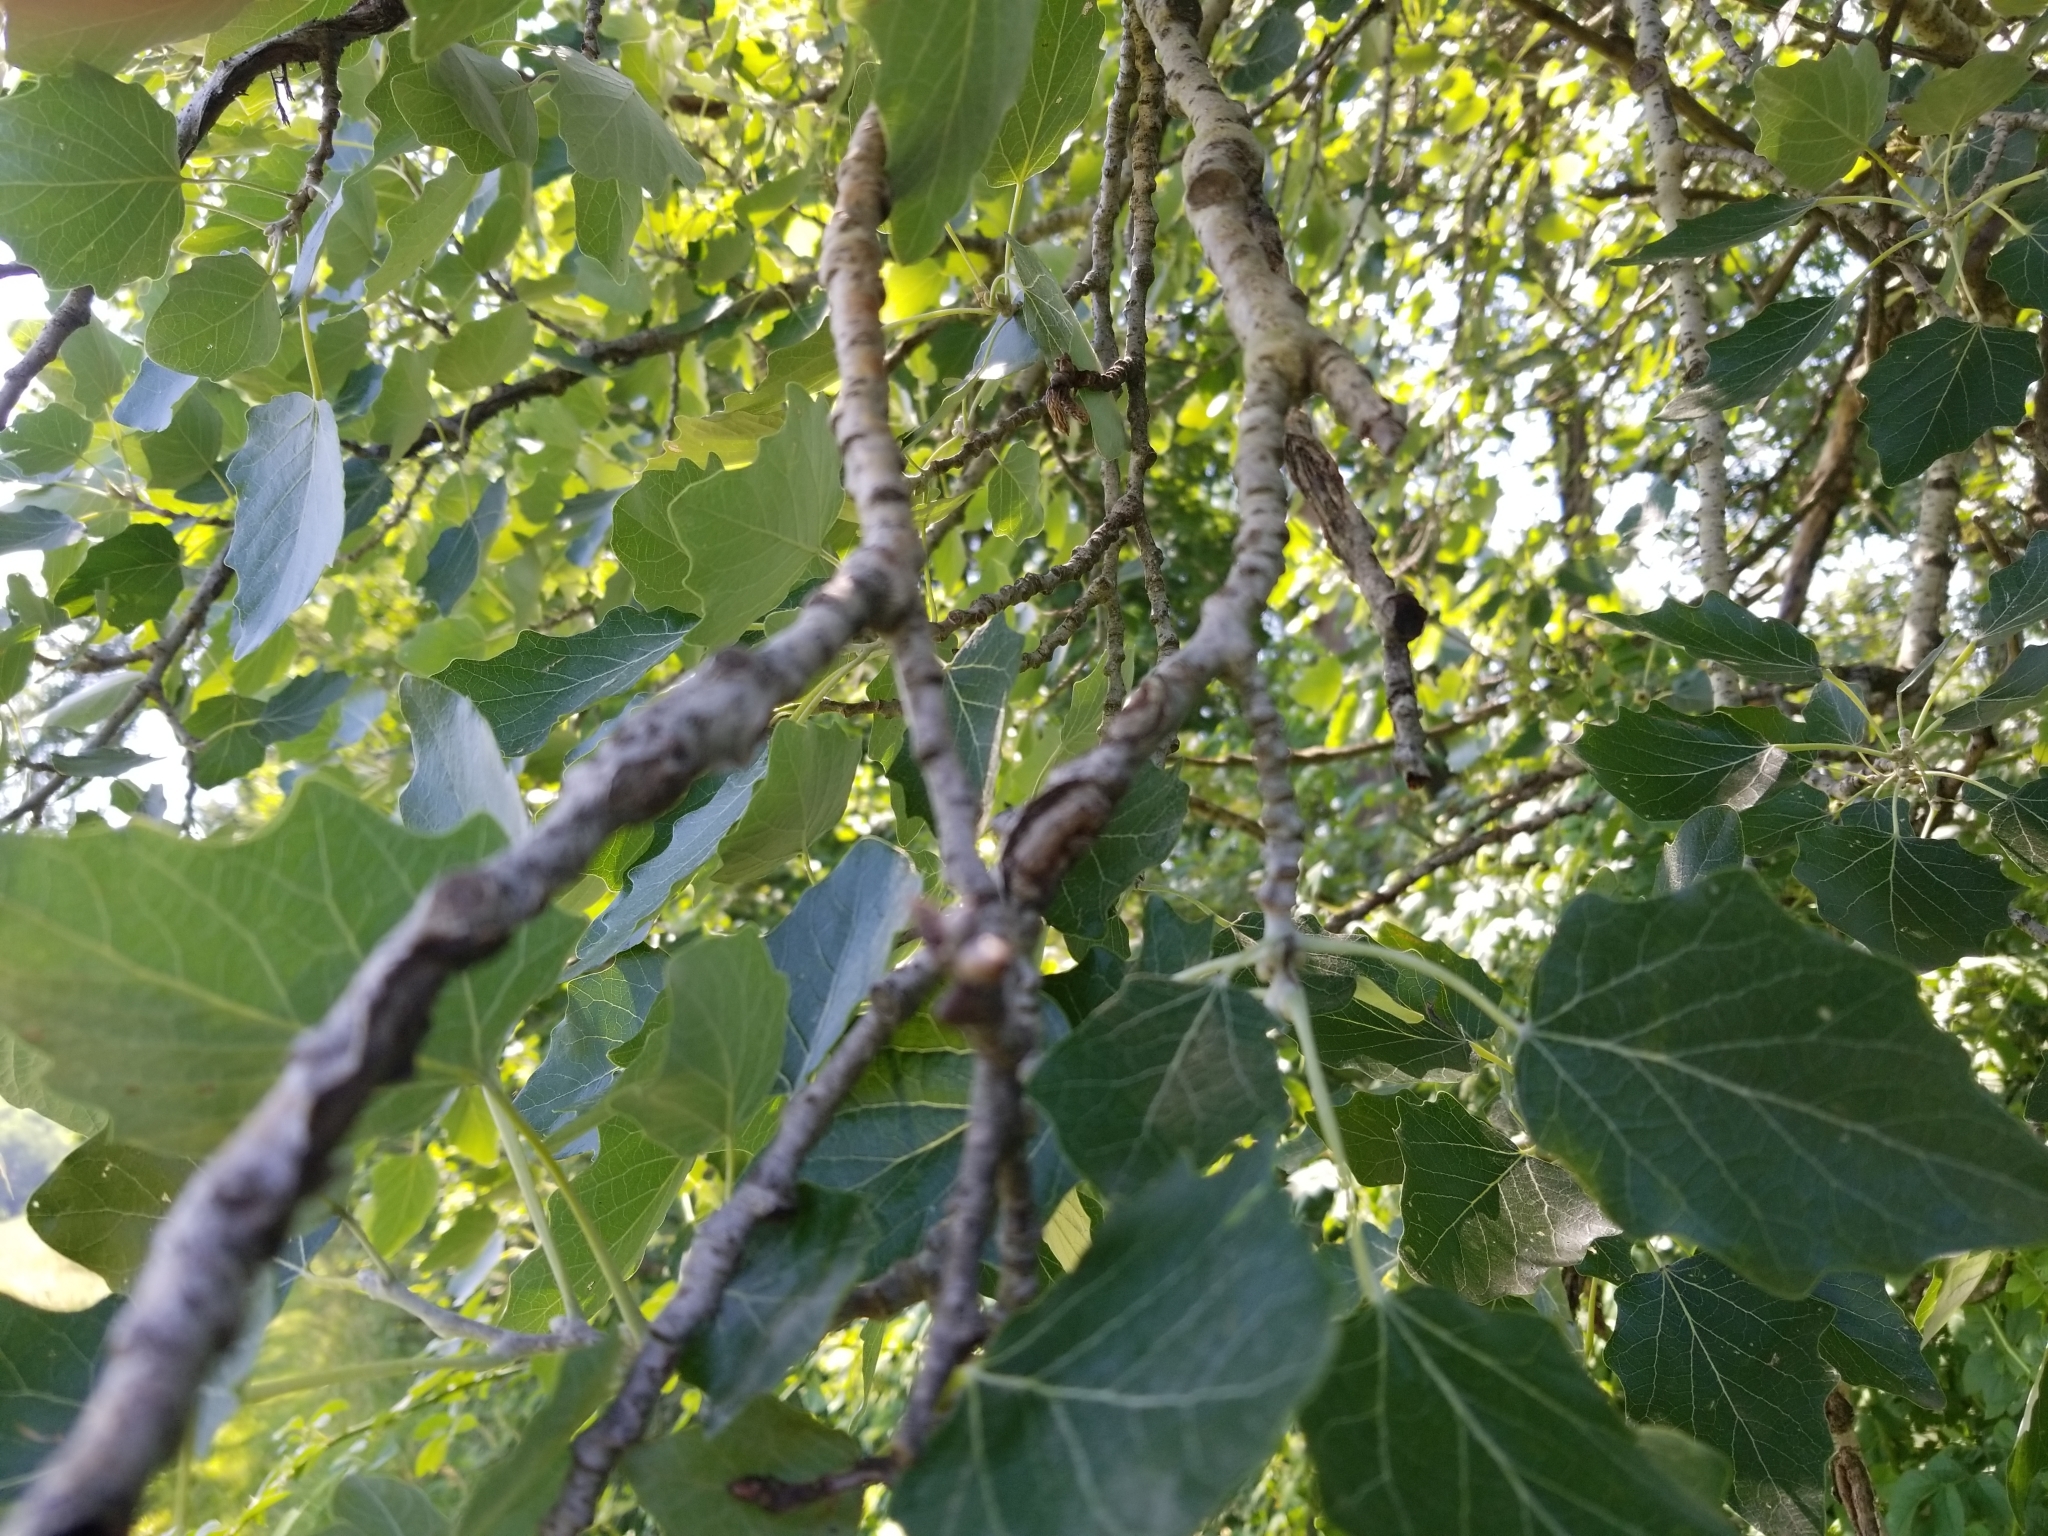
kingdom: Plantae
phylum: Tracheophyta
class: Magnoliopsida
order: Malpighiales
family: Salicaceae
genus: Populus
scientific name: Populus alba
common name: White poplar
